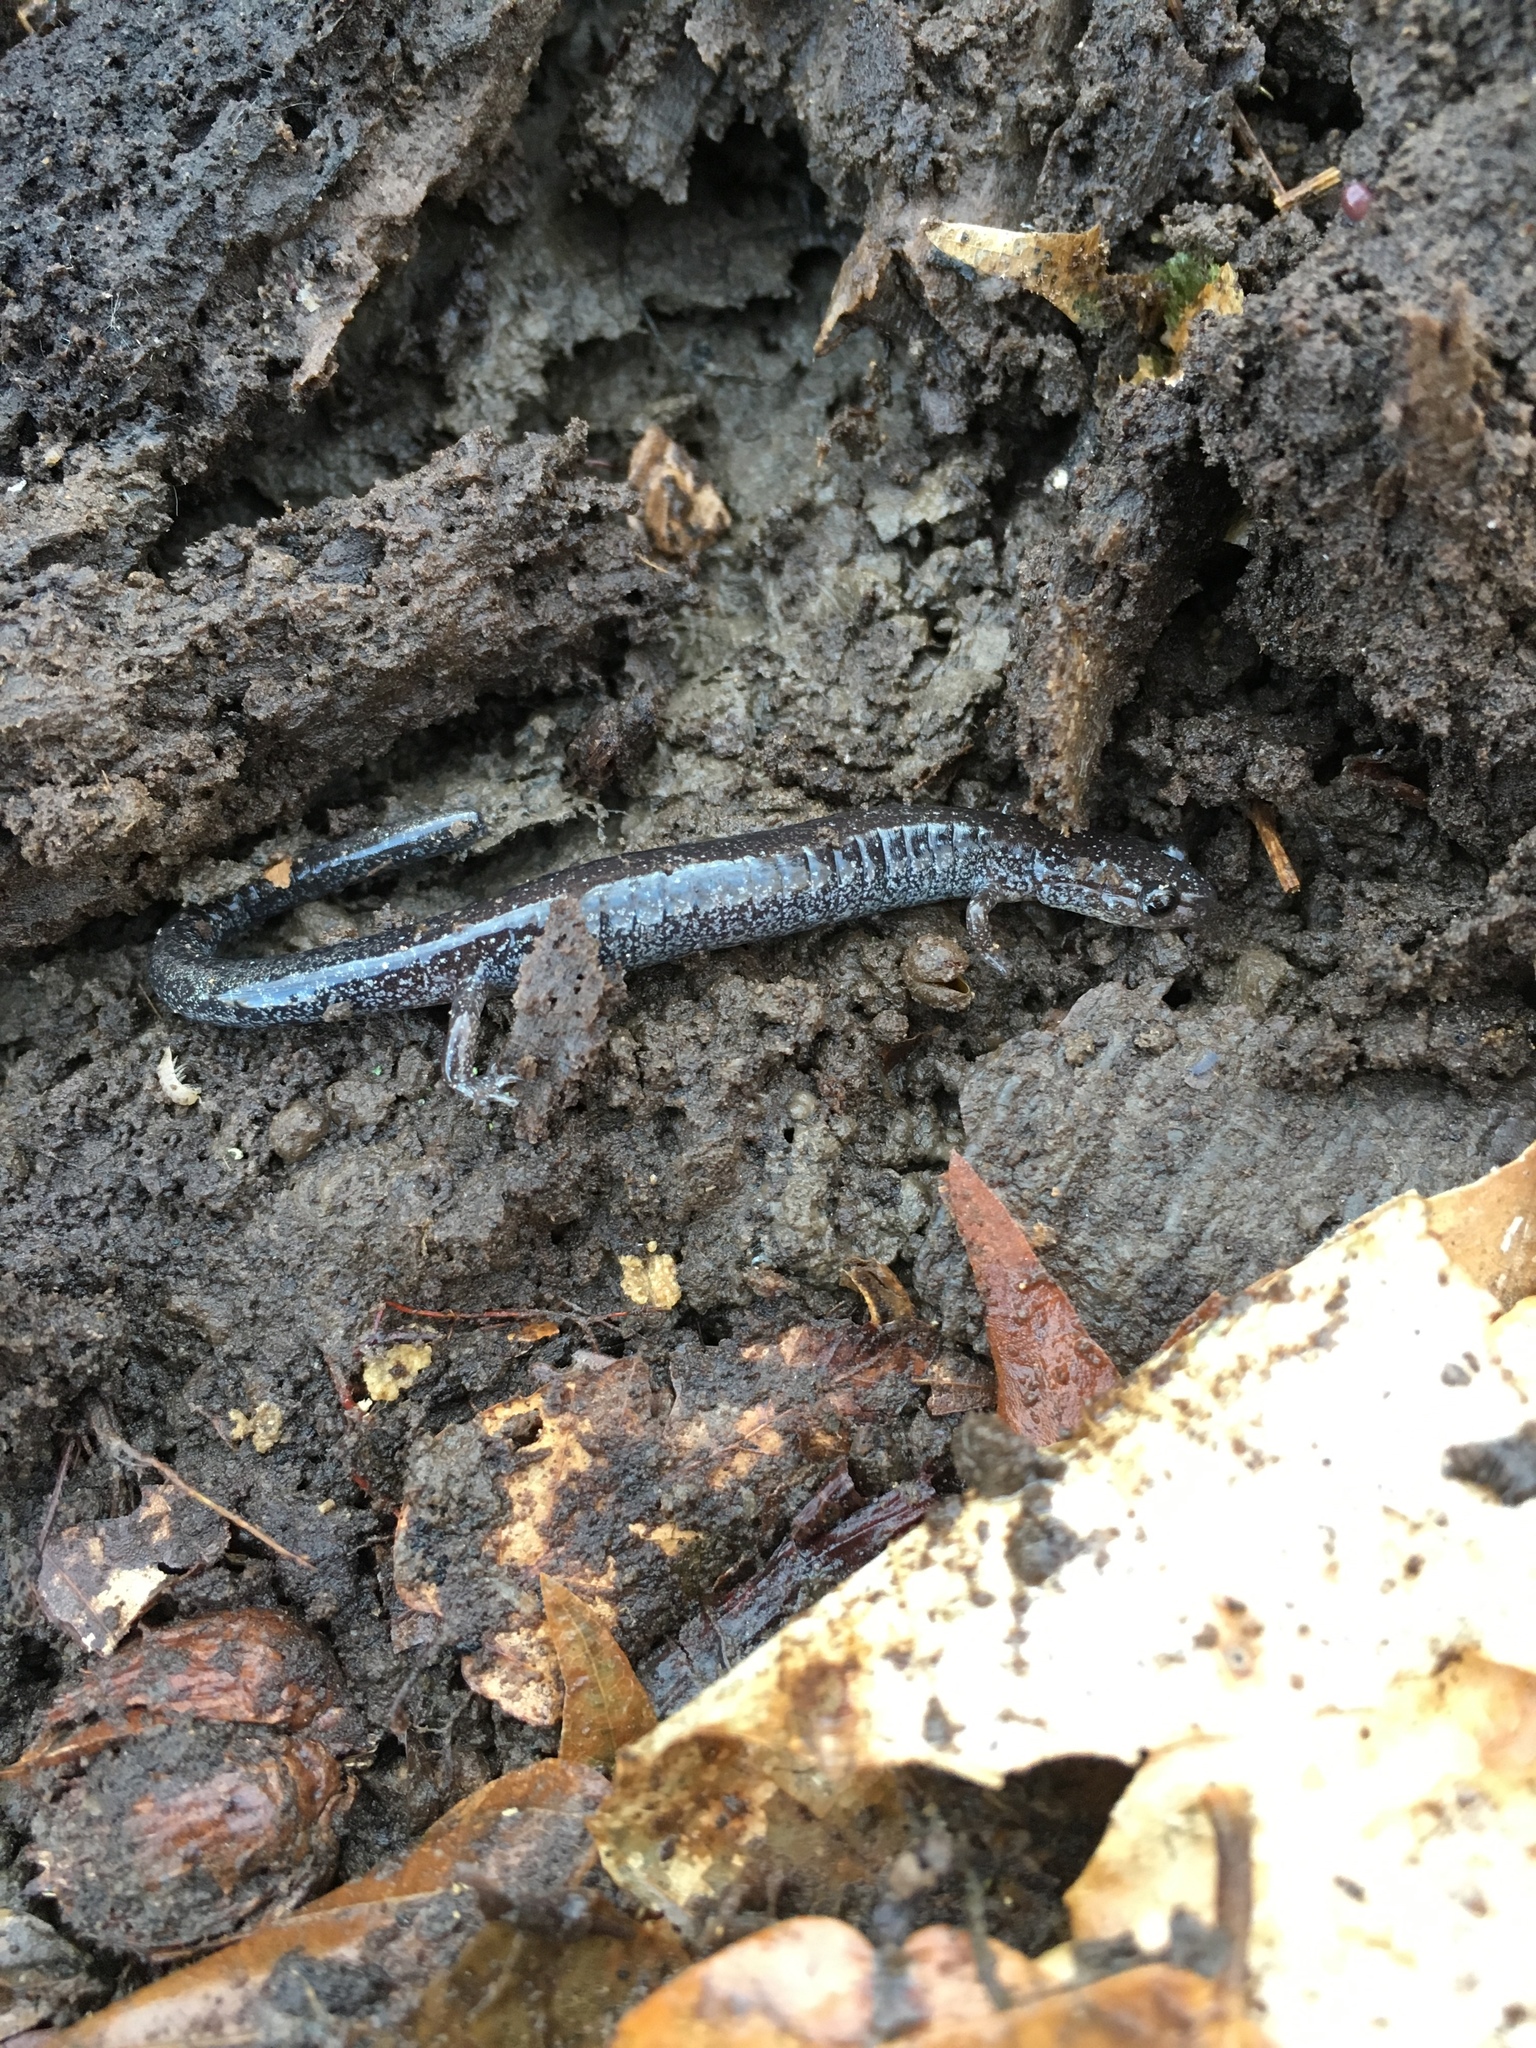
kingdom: Animalia
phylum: Chordata
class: Amphibia
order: Caudata
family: Plethodontidae
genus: Plethodon
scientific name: Plethodon cinereus
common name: Redback salamander
